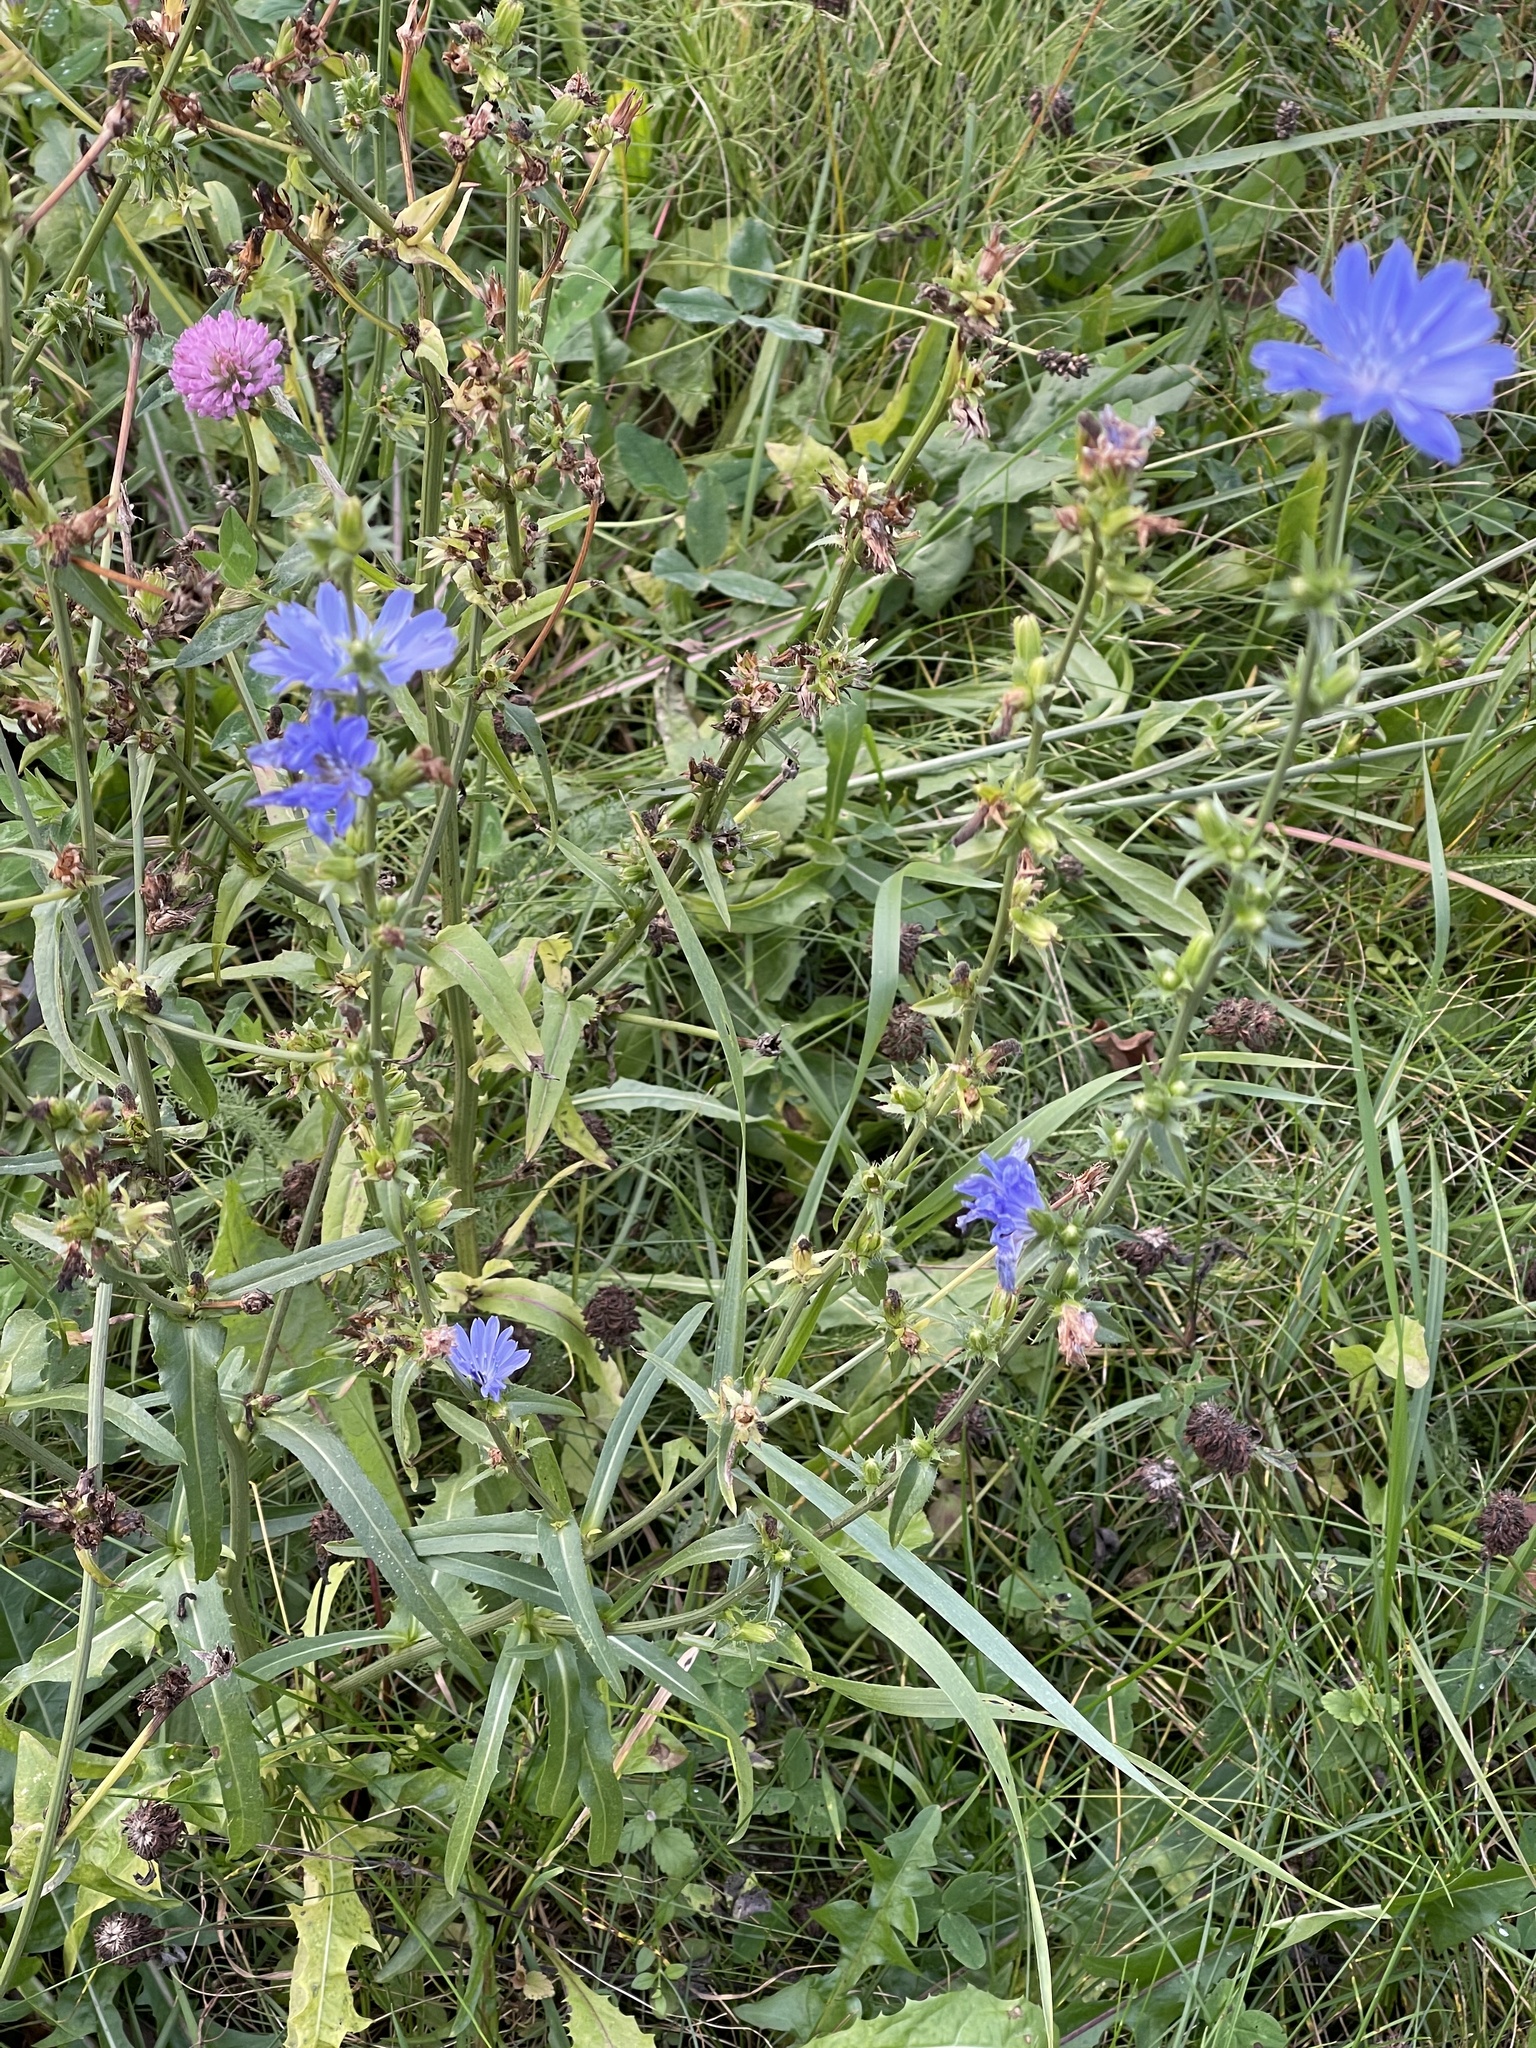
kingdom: Plantae
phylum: Tracheophyta
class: Magnoliopsida
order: Asterales
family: Asteraceae
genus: Cichorium
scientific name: Cichorium intybus
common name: Chicory
